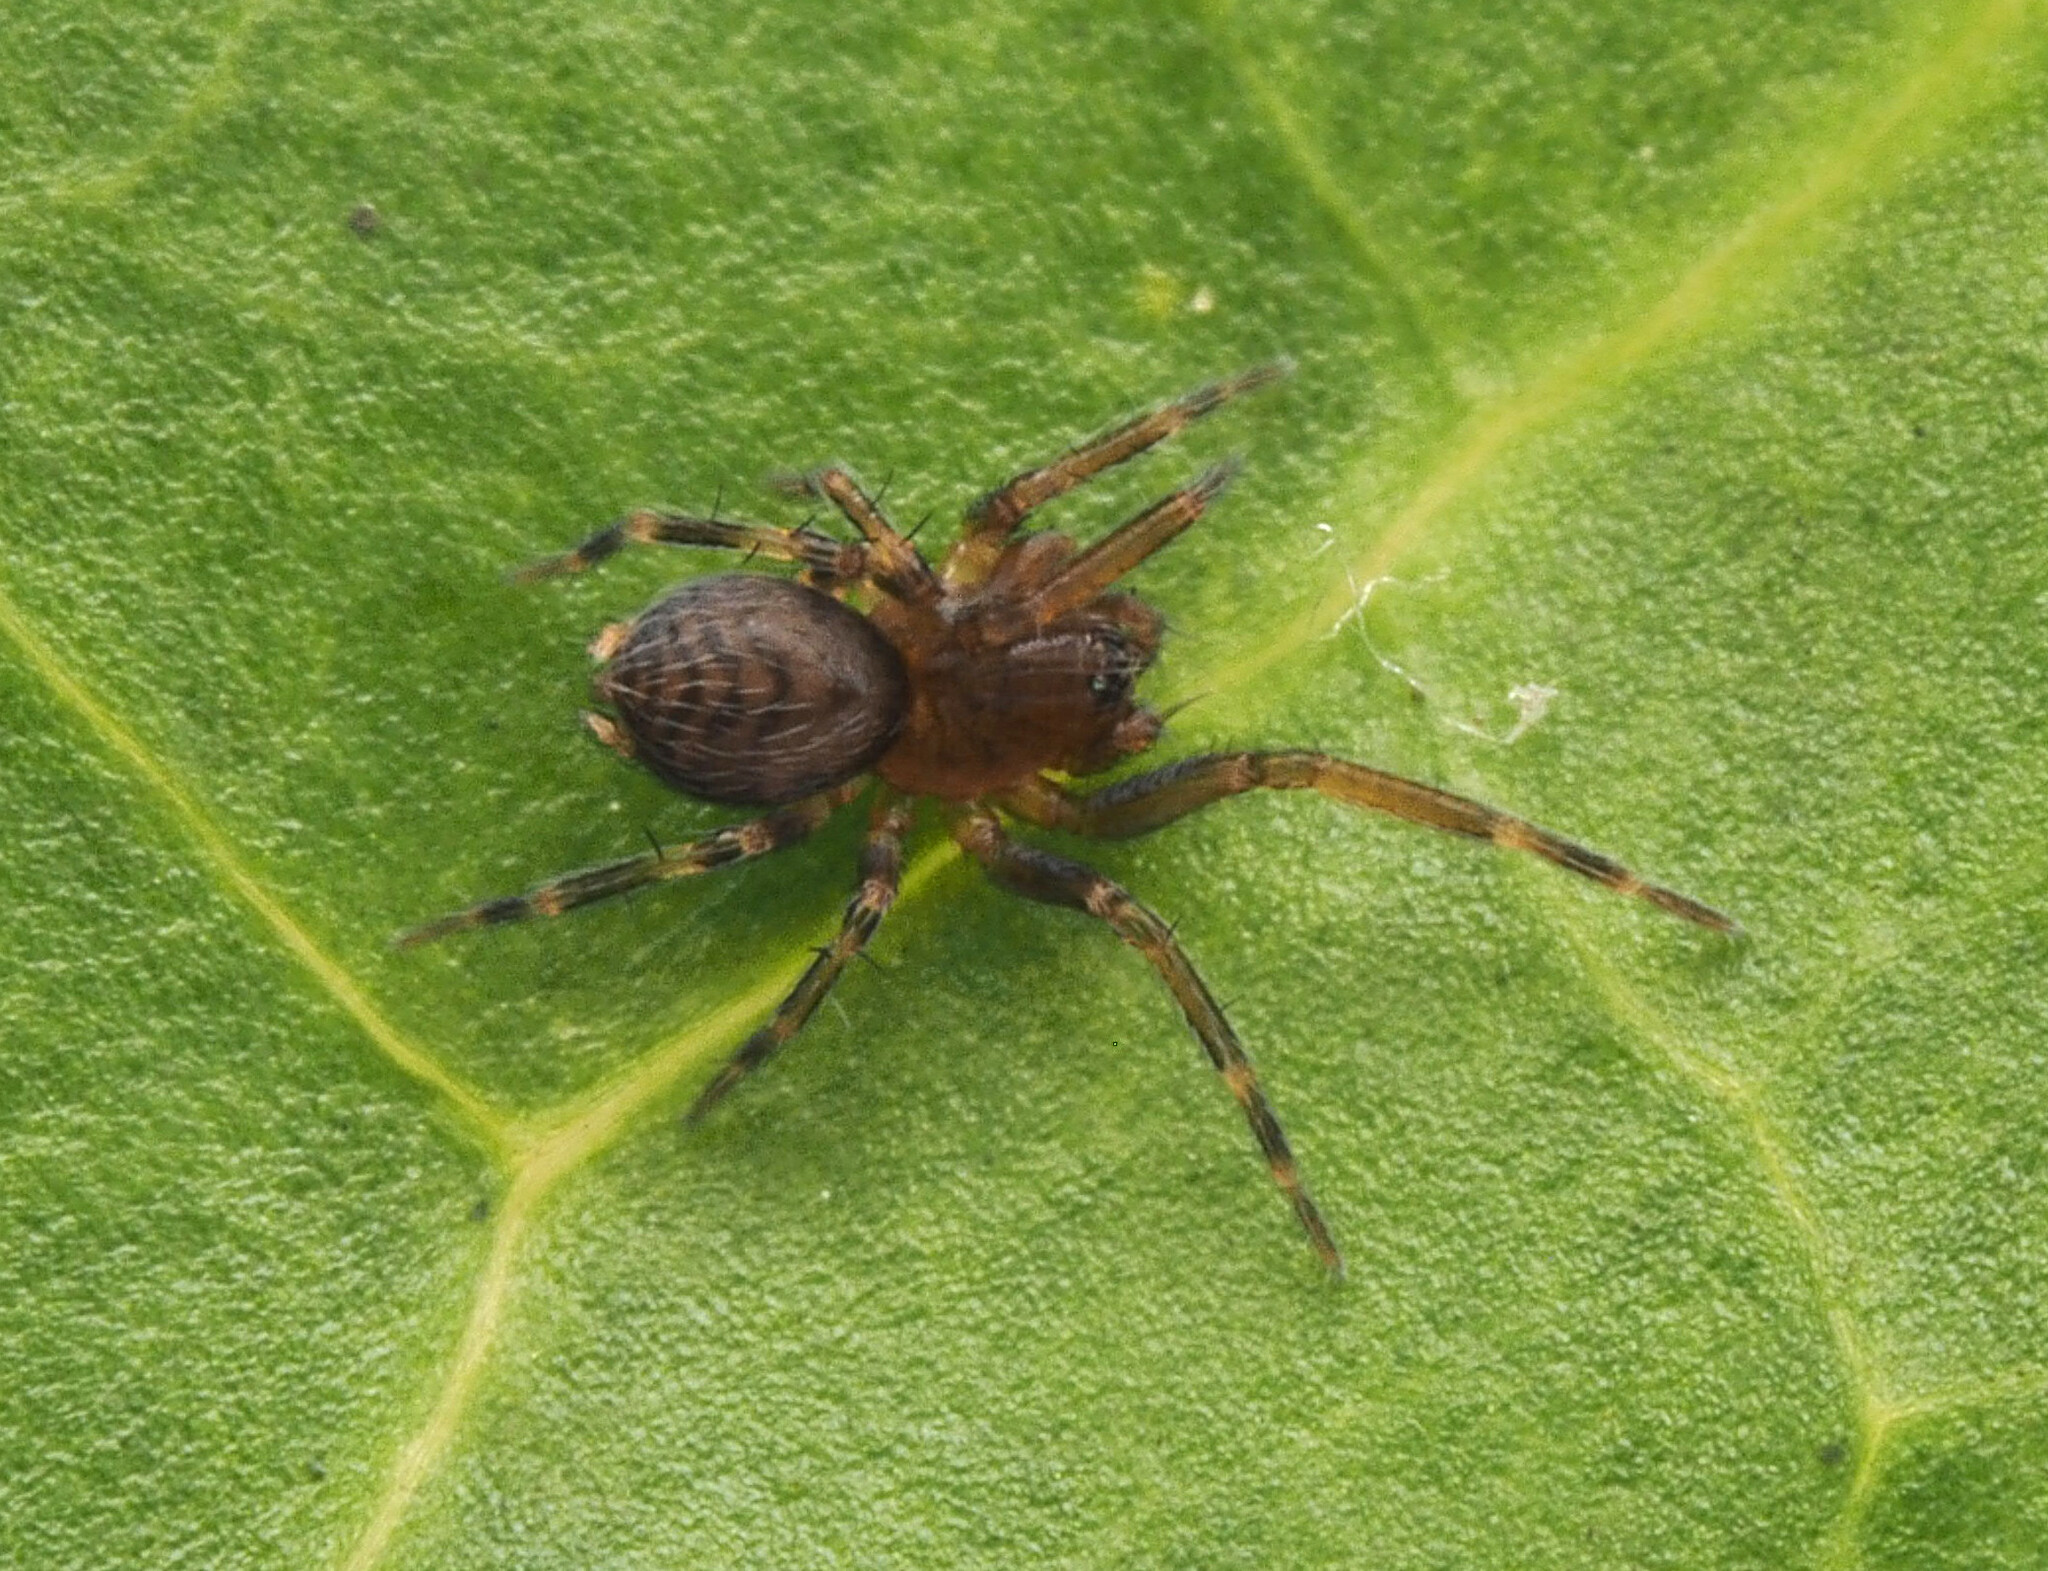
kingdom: Animalia
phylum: Arthropoda
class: Arachnida
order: Araneae
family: Hahniidae
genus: Alistra
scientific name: Alistra
